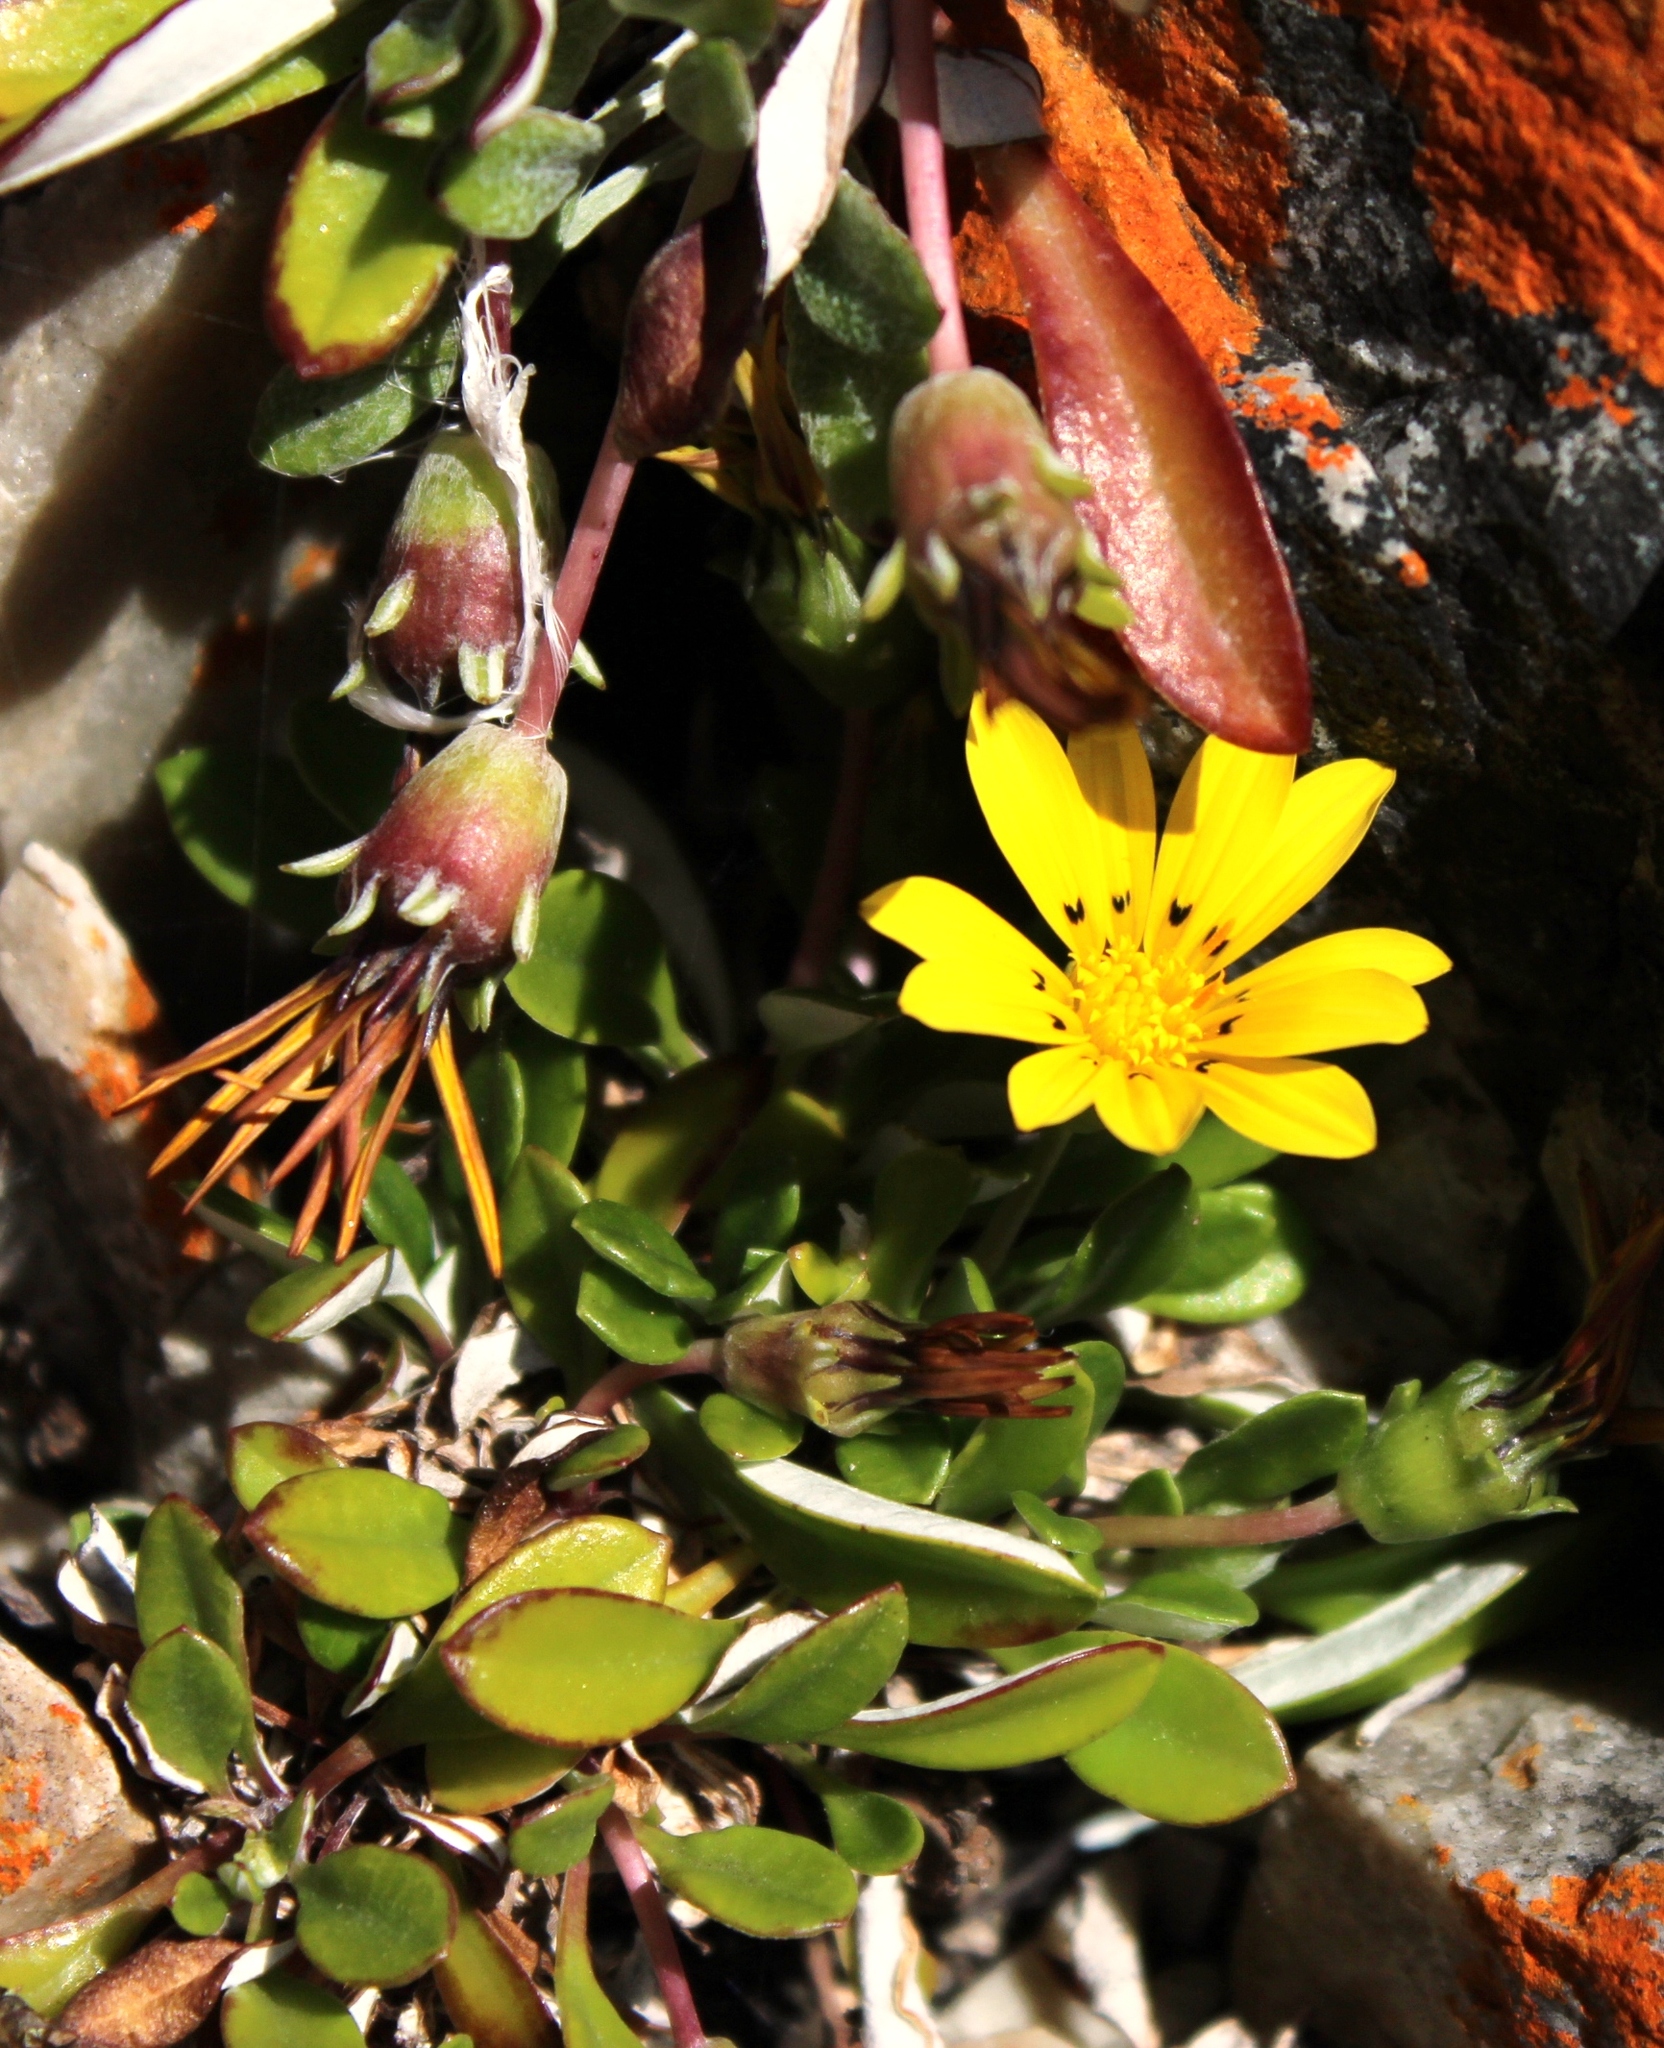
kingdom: Plantae
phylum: Tracheophyta
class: Magnoliopsida
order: Asterales
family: Asteraceae
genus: Gazania
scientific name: Gazania rigens
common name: Treasureflower
